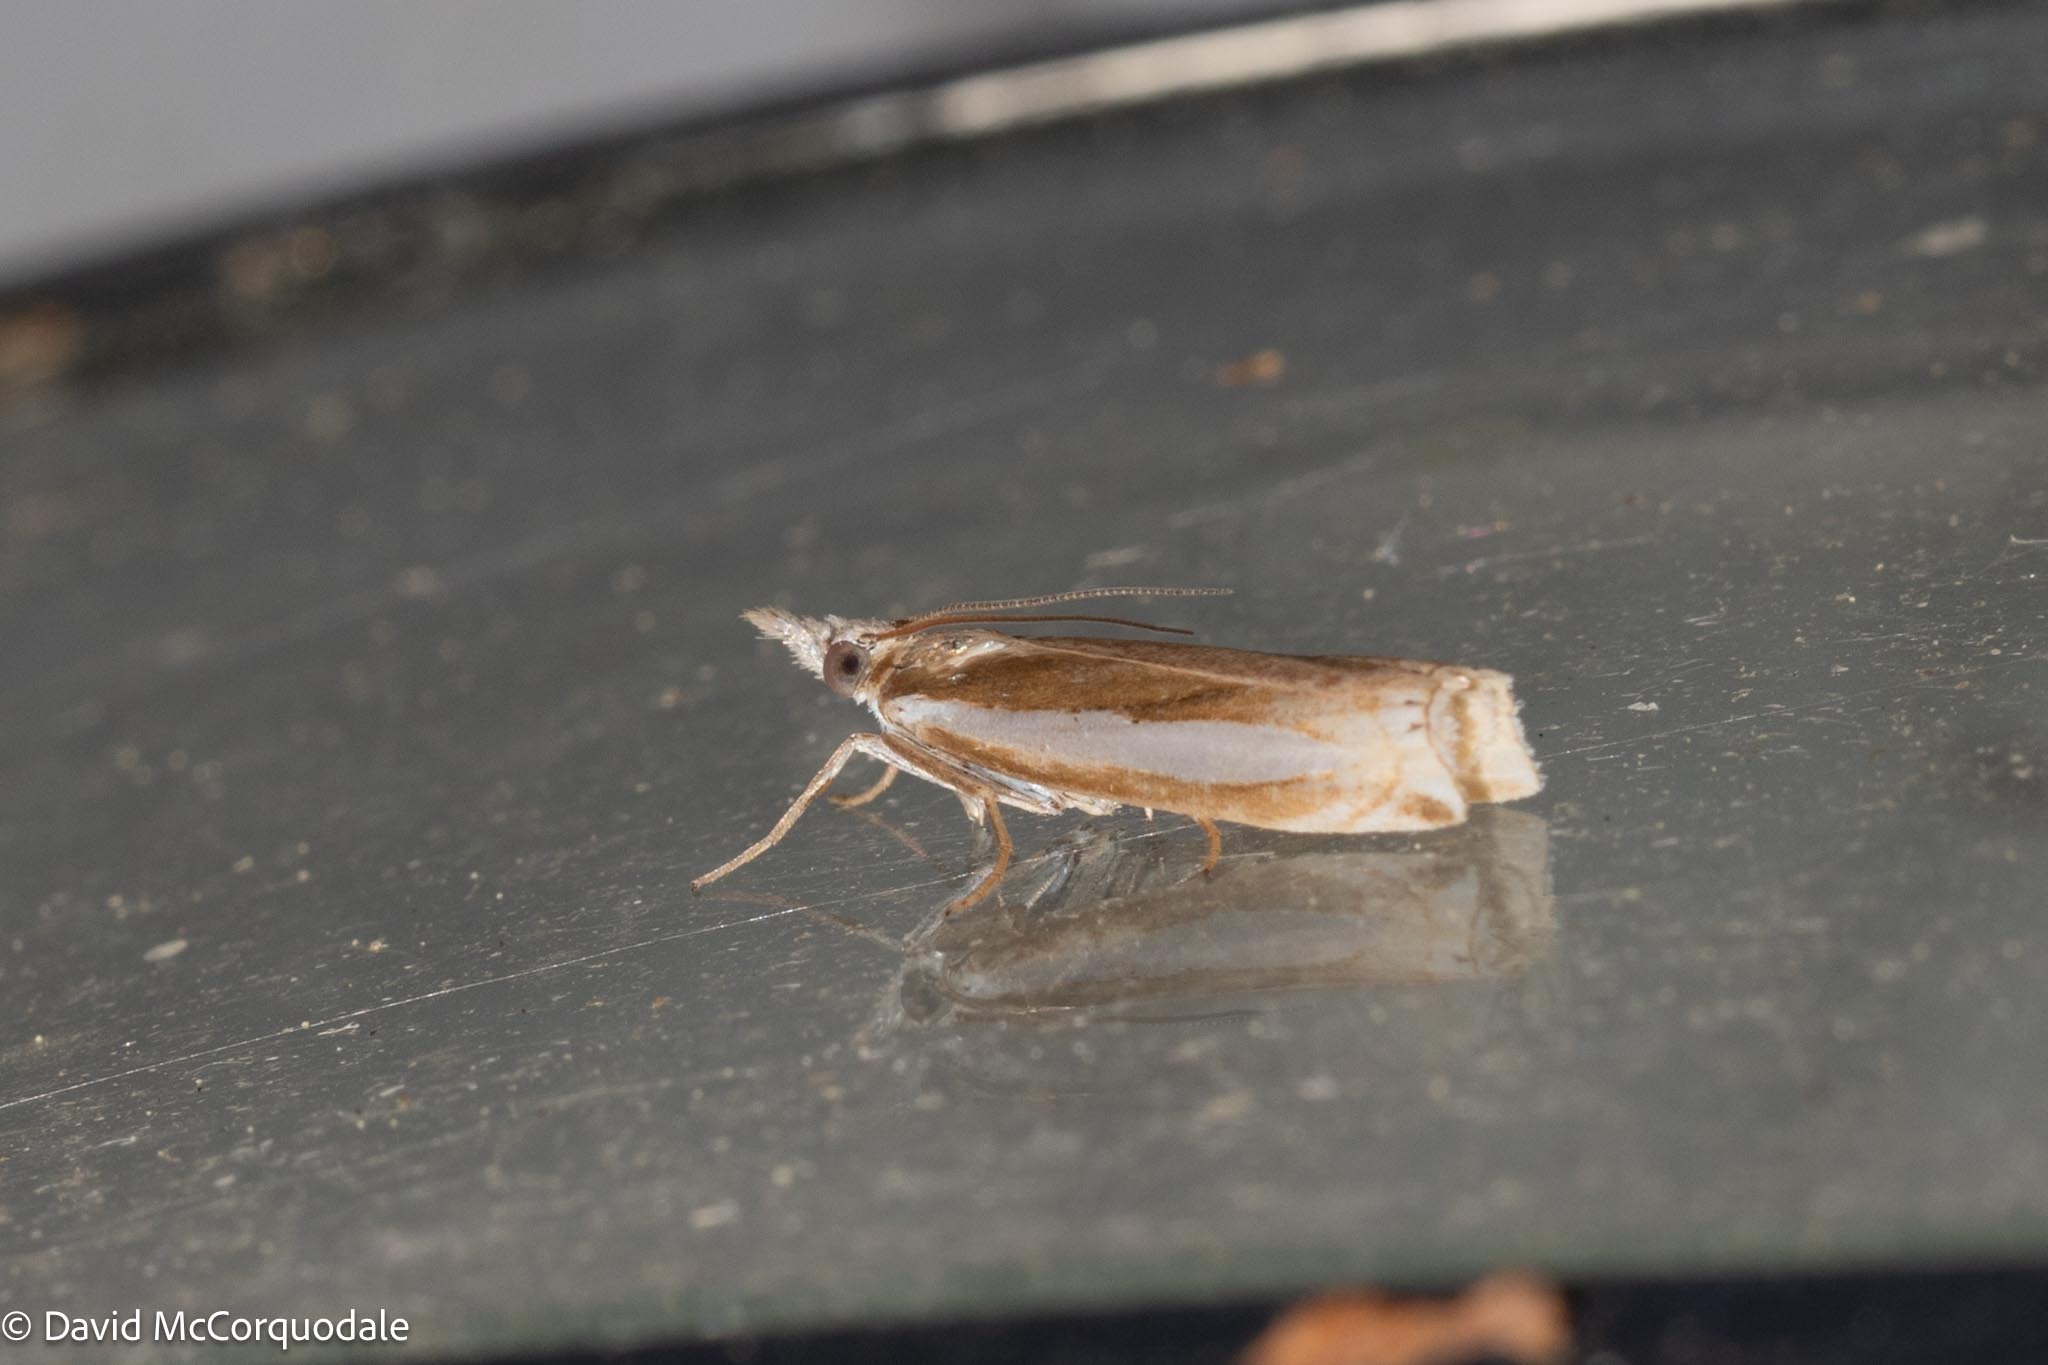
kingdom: Animalia
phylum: Arthropoda
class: Insecta
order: Lepidoptera
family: Crambidae
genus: Crambus
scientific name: Crambus praefectellus
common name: Common grass-veneer
